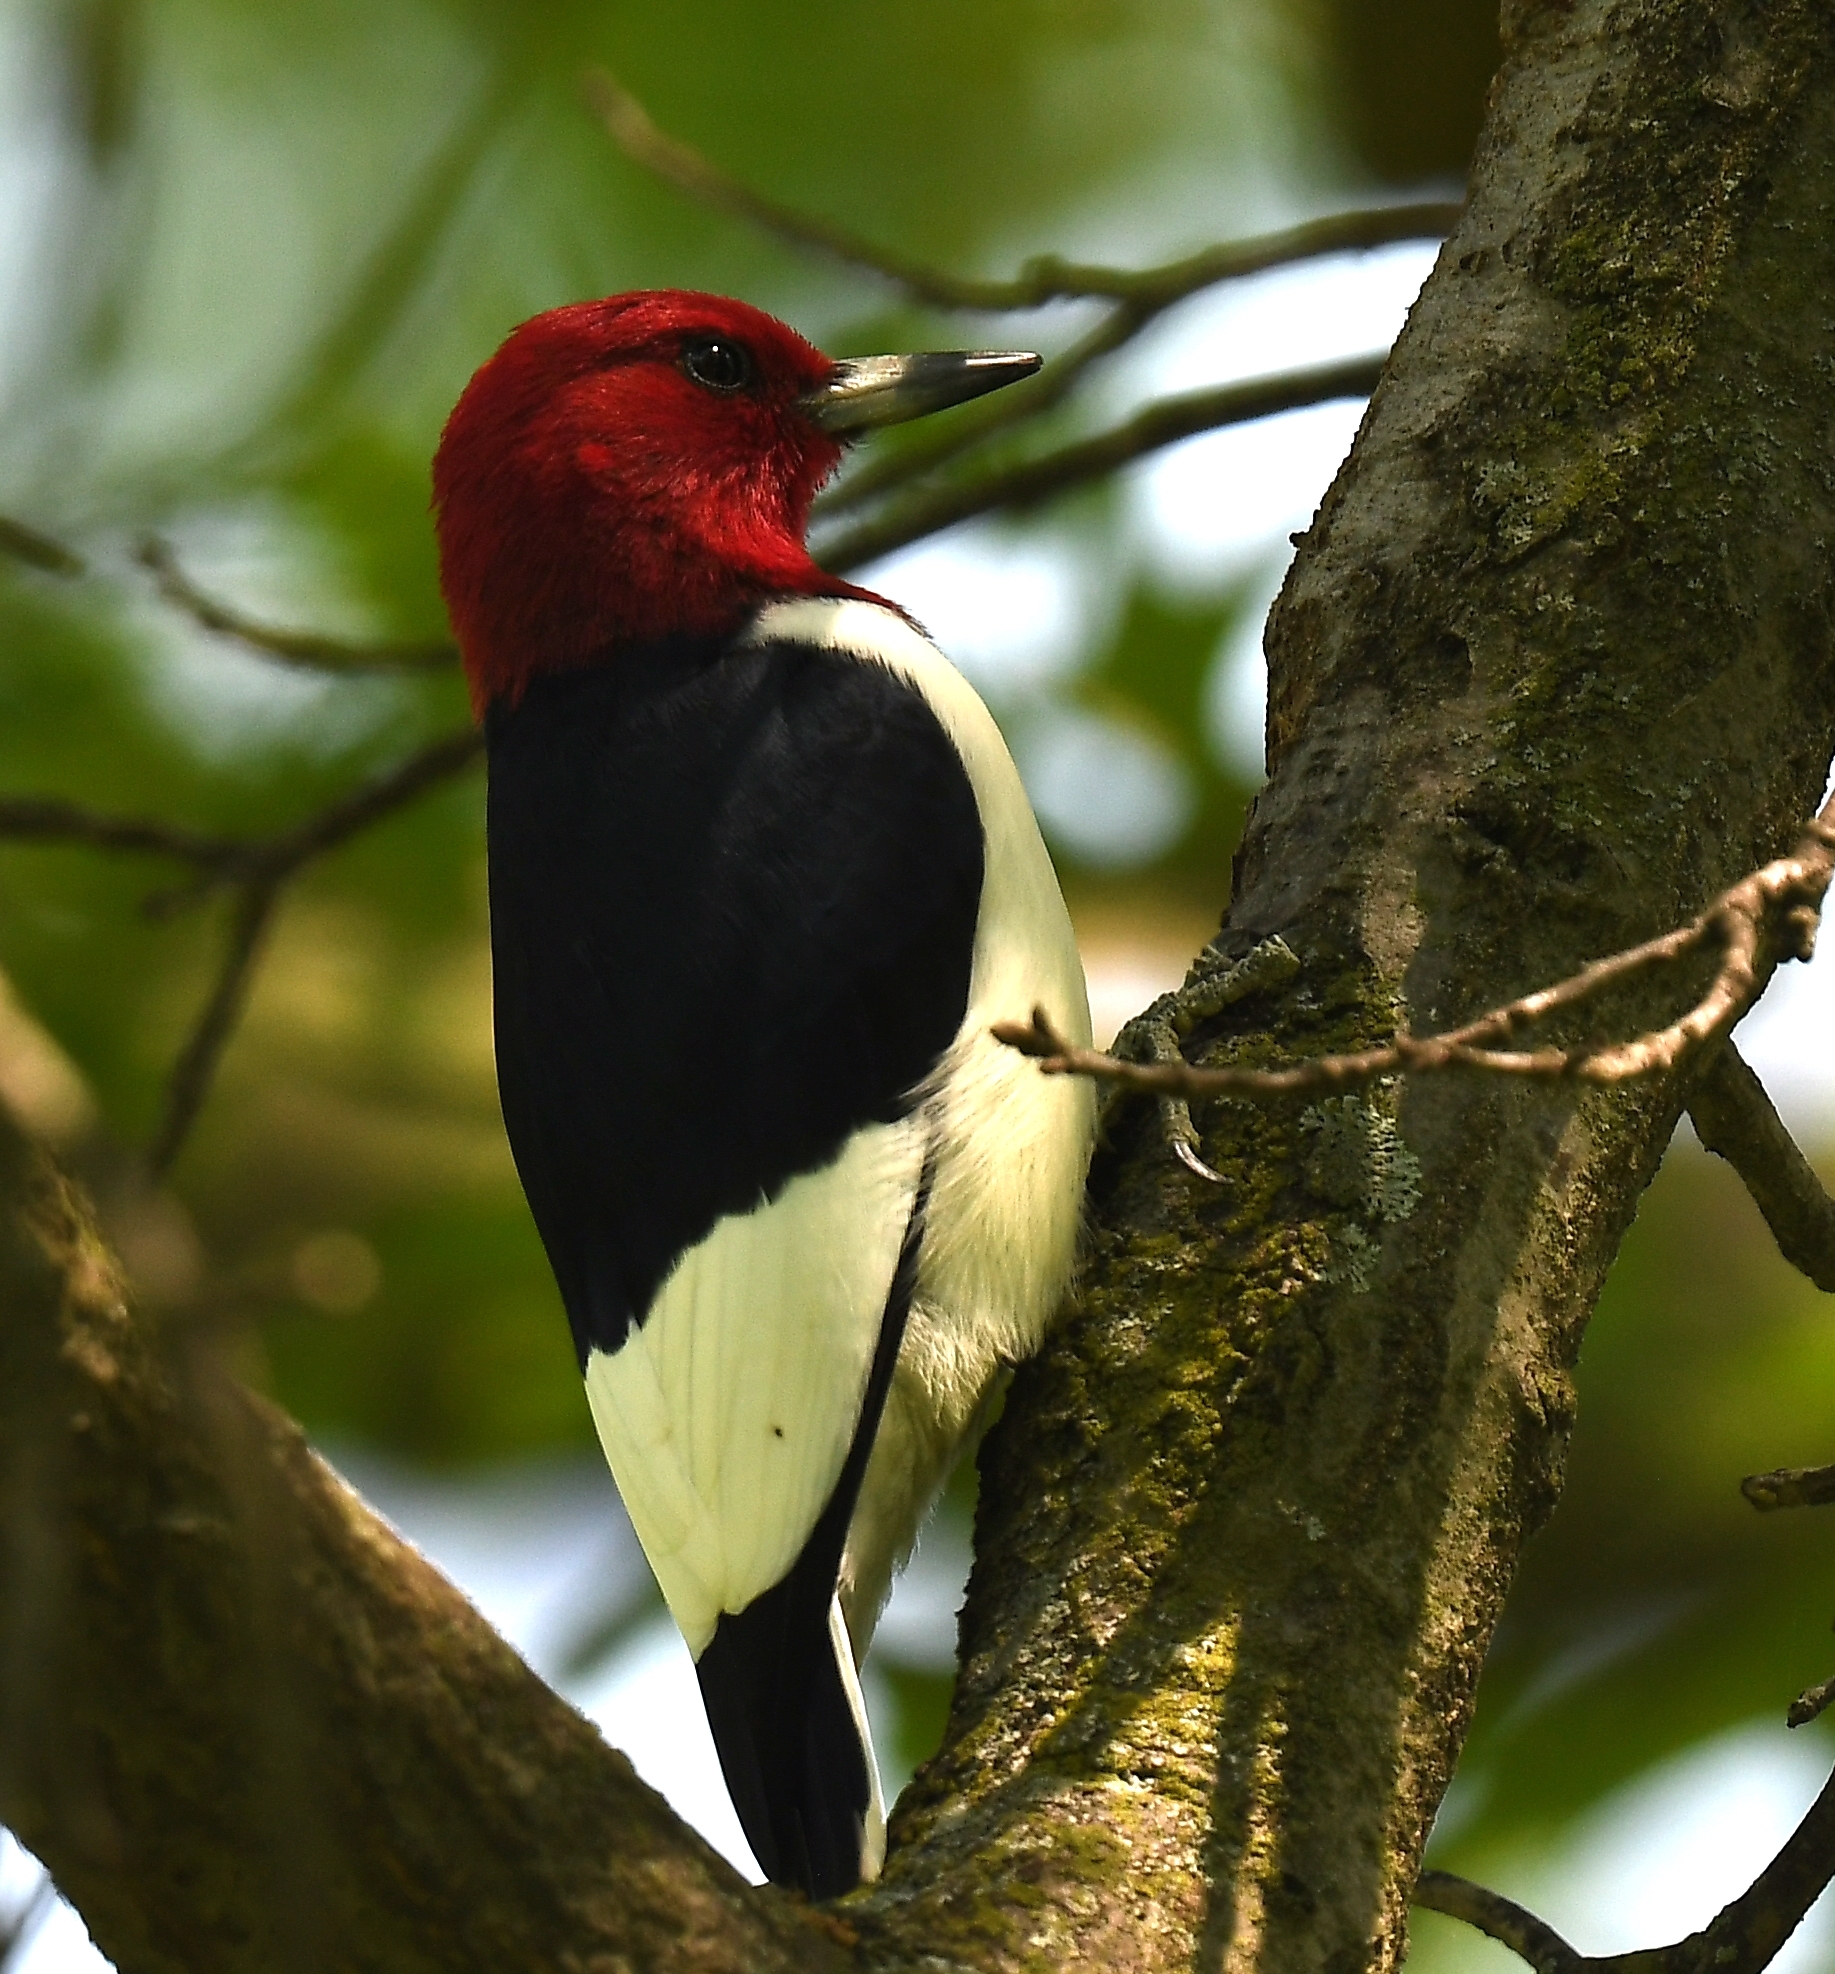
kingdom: Animalia
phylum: Chordata
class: Aves
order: Piciformes
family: Picidae
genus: Melanerpes
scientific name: Melanerpes erythrocephalus
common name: Red-headed woodpecker
